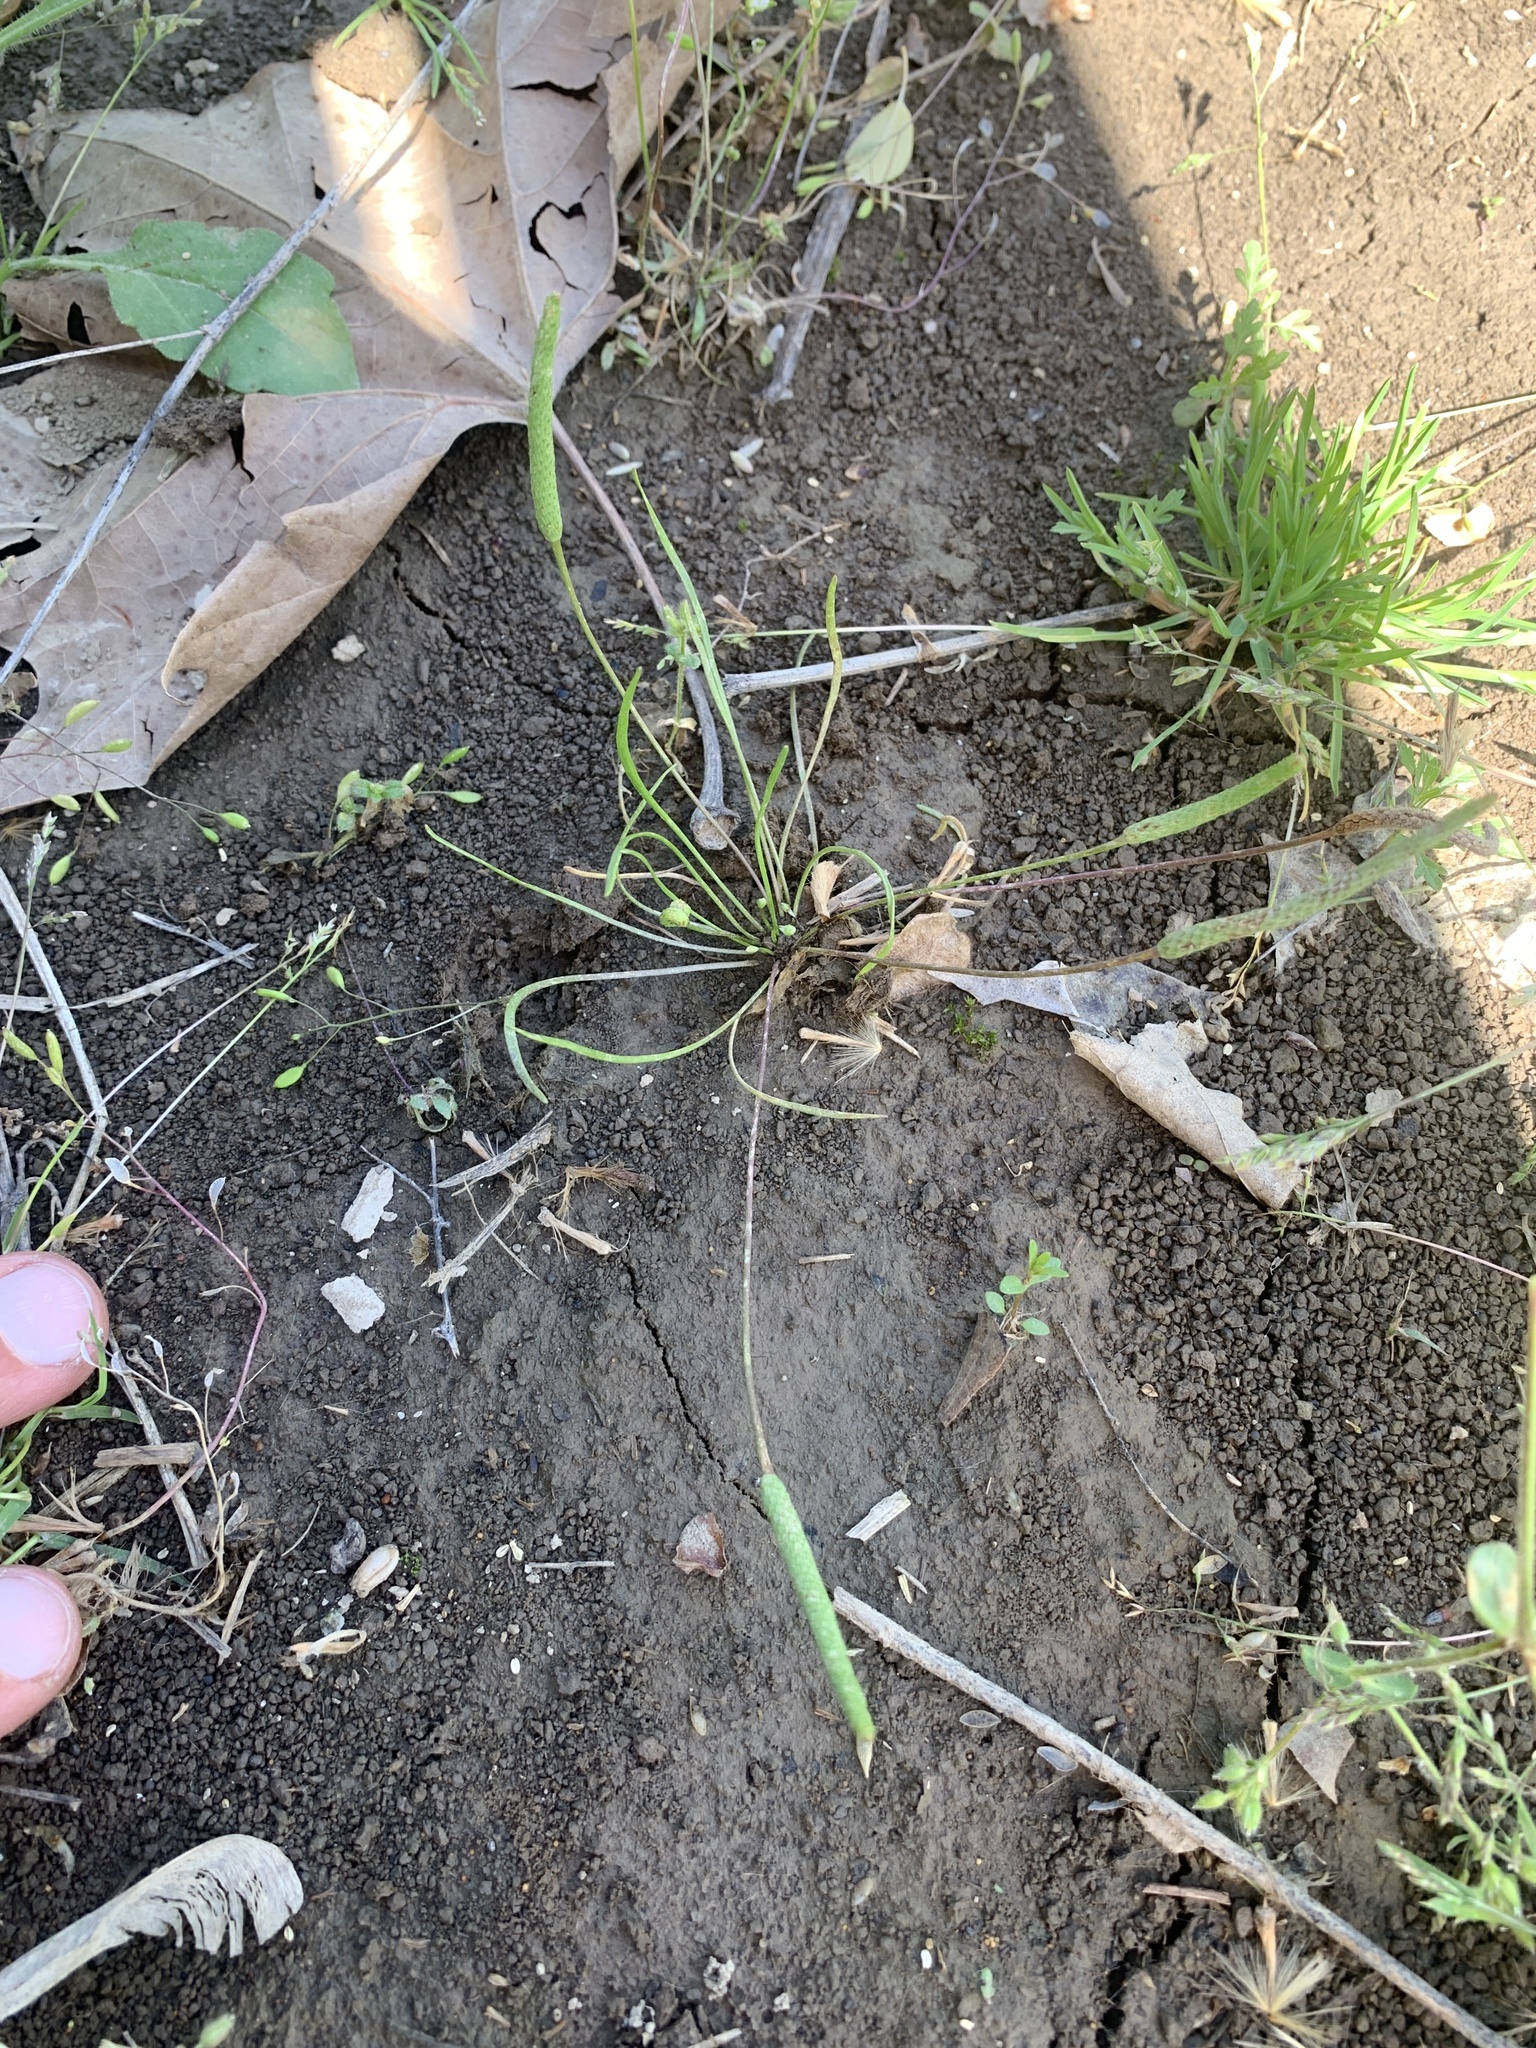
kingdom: Plantae
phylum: Tracheophyta
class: Magnoliopsida
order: Ranunculales
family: Ranunculaceae
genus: Myosurus
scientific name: Myosurus minimus
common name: Mousetail
